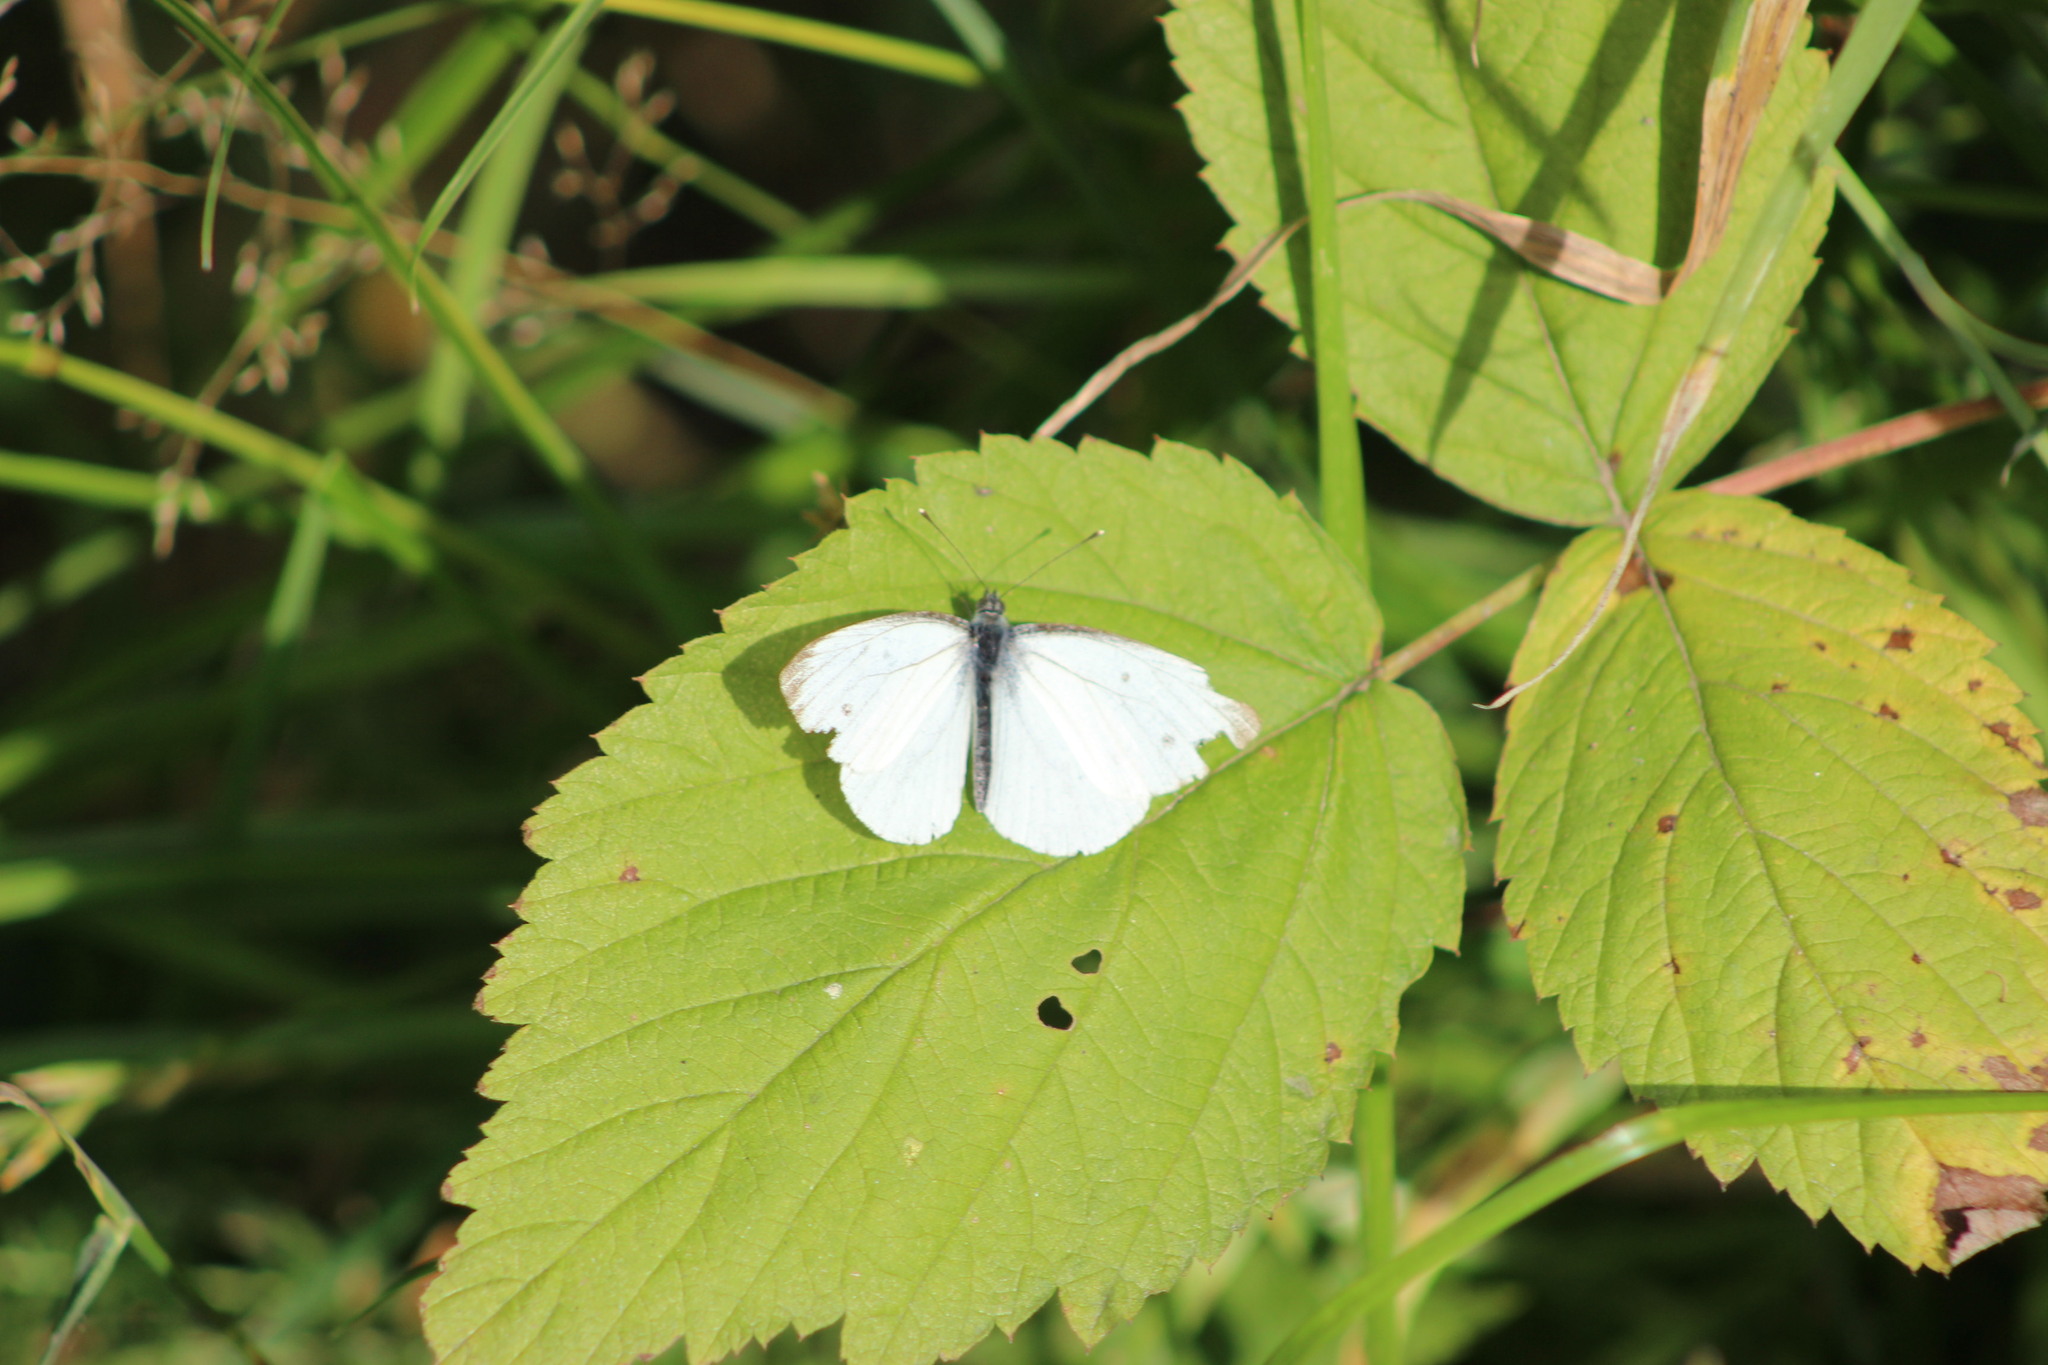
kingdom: Animalia
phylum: Arthropoda
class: Insecta
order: Lepidoptera
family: Pieridae
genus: Pieris
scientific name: Pieris napi
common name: Green-veined white
